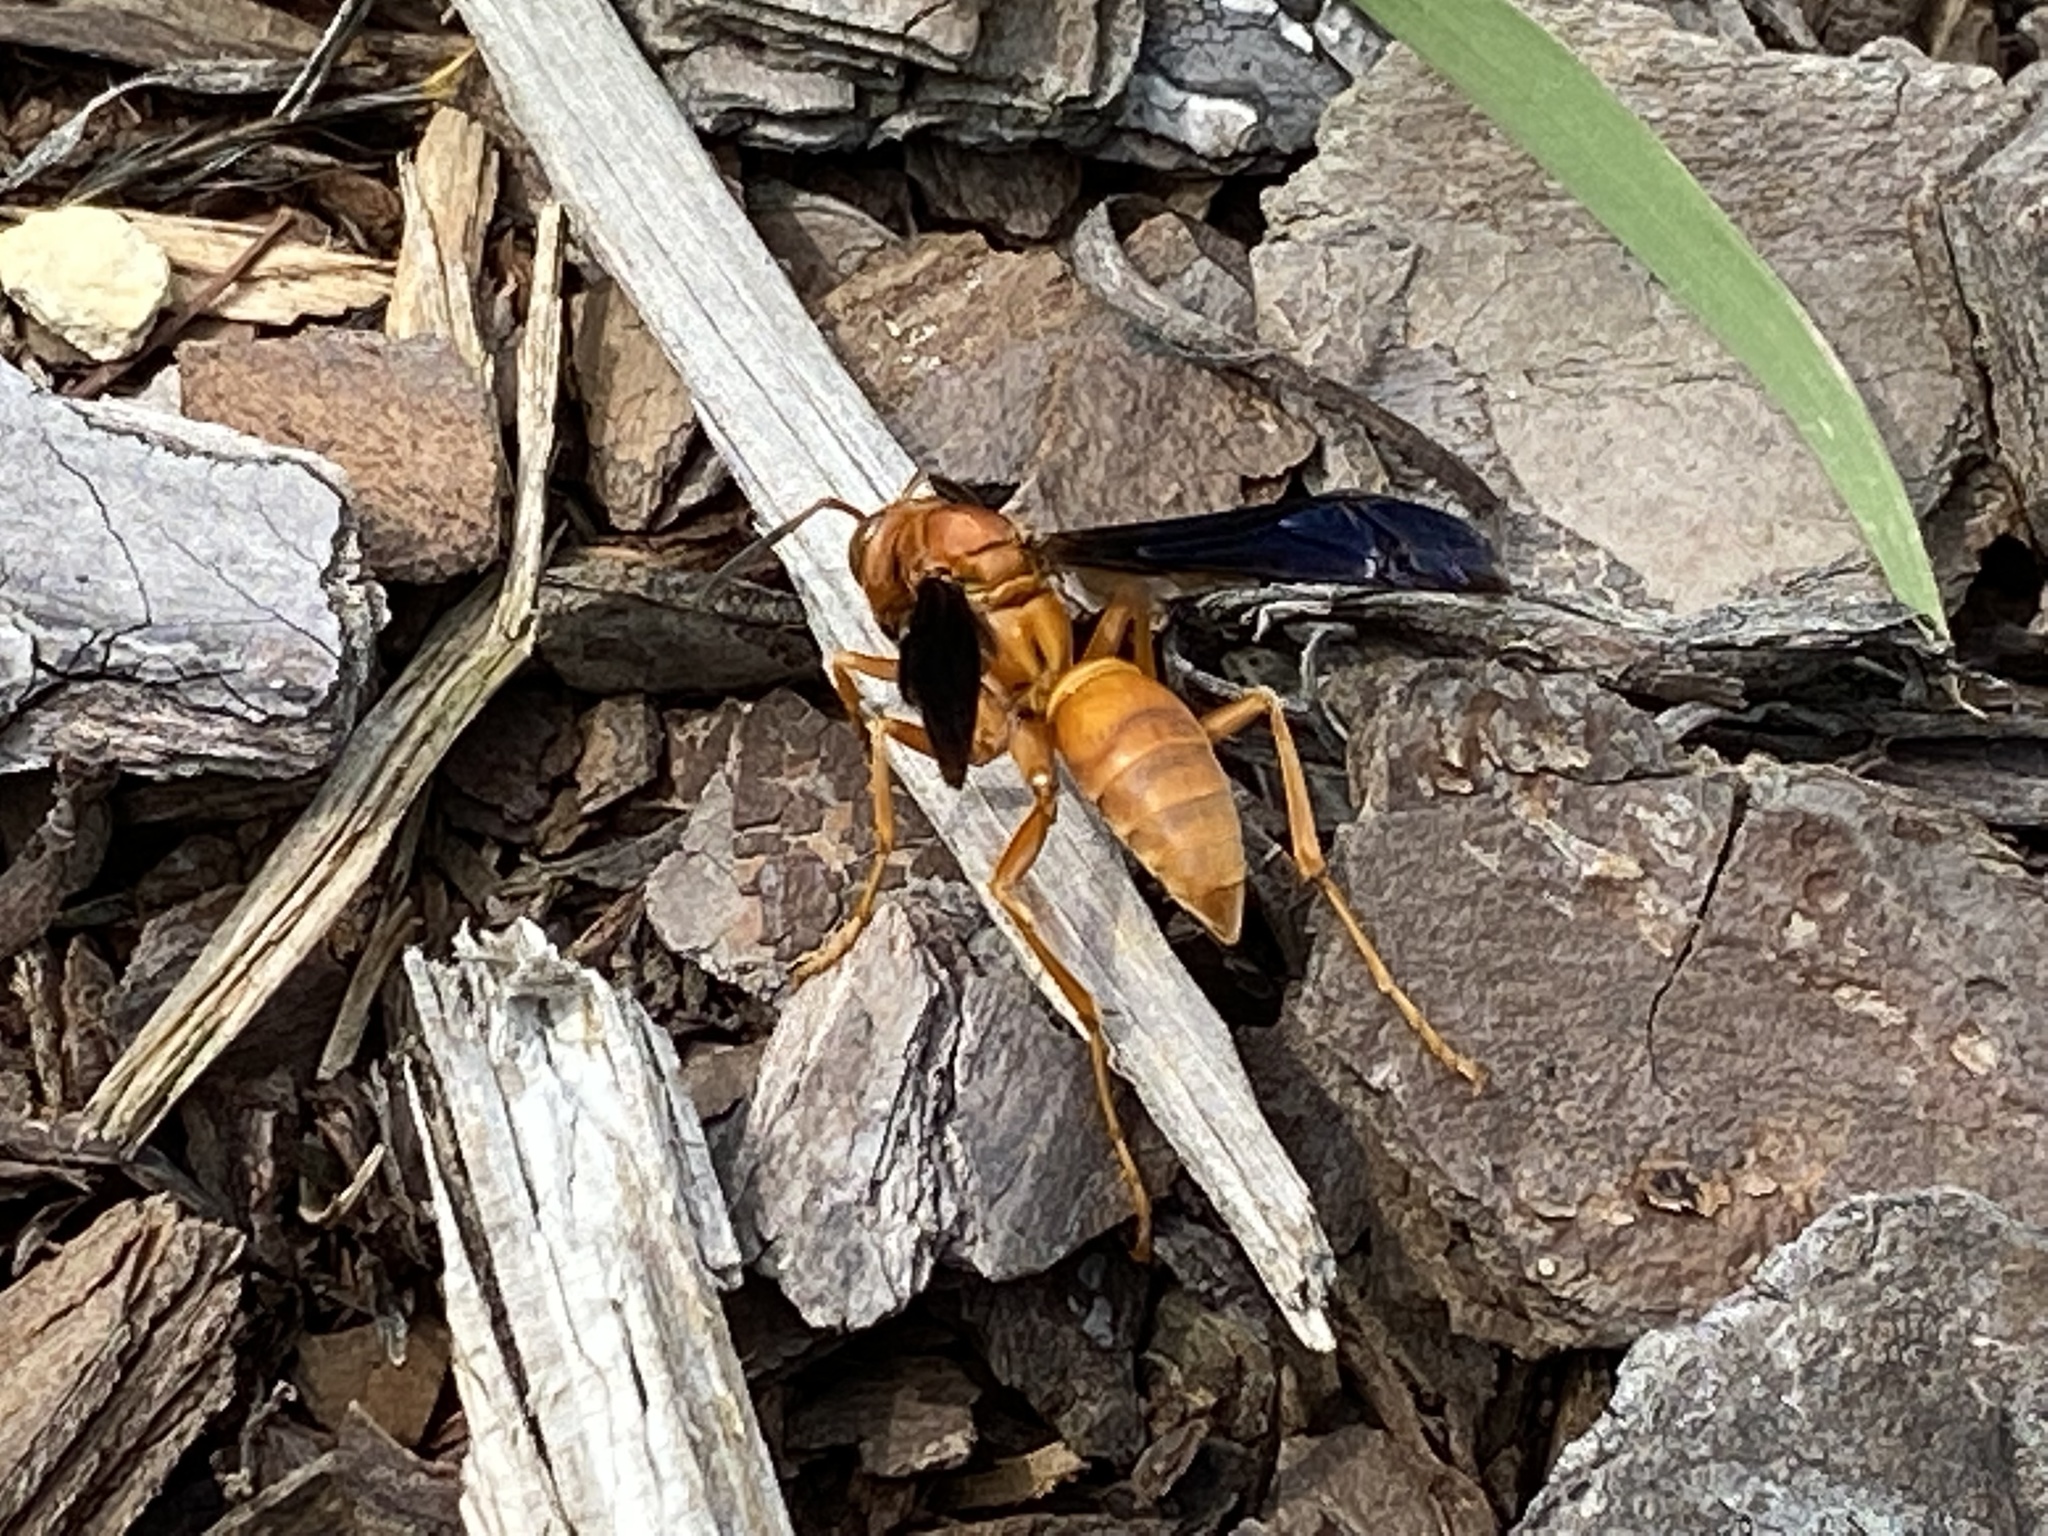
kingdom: Animalia
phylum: Arthropoda
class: Insecta
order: Hymenoptera
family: Vespidae
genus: Fuscopolistes
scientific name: Fuscopolistes
